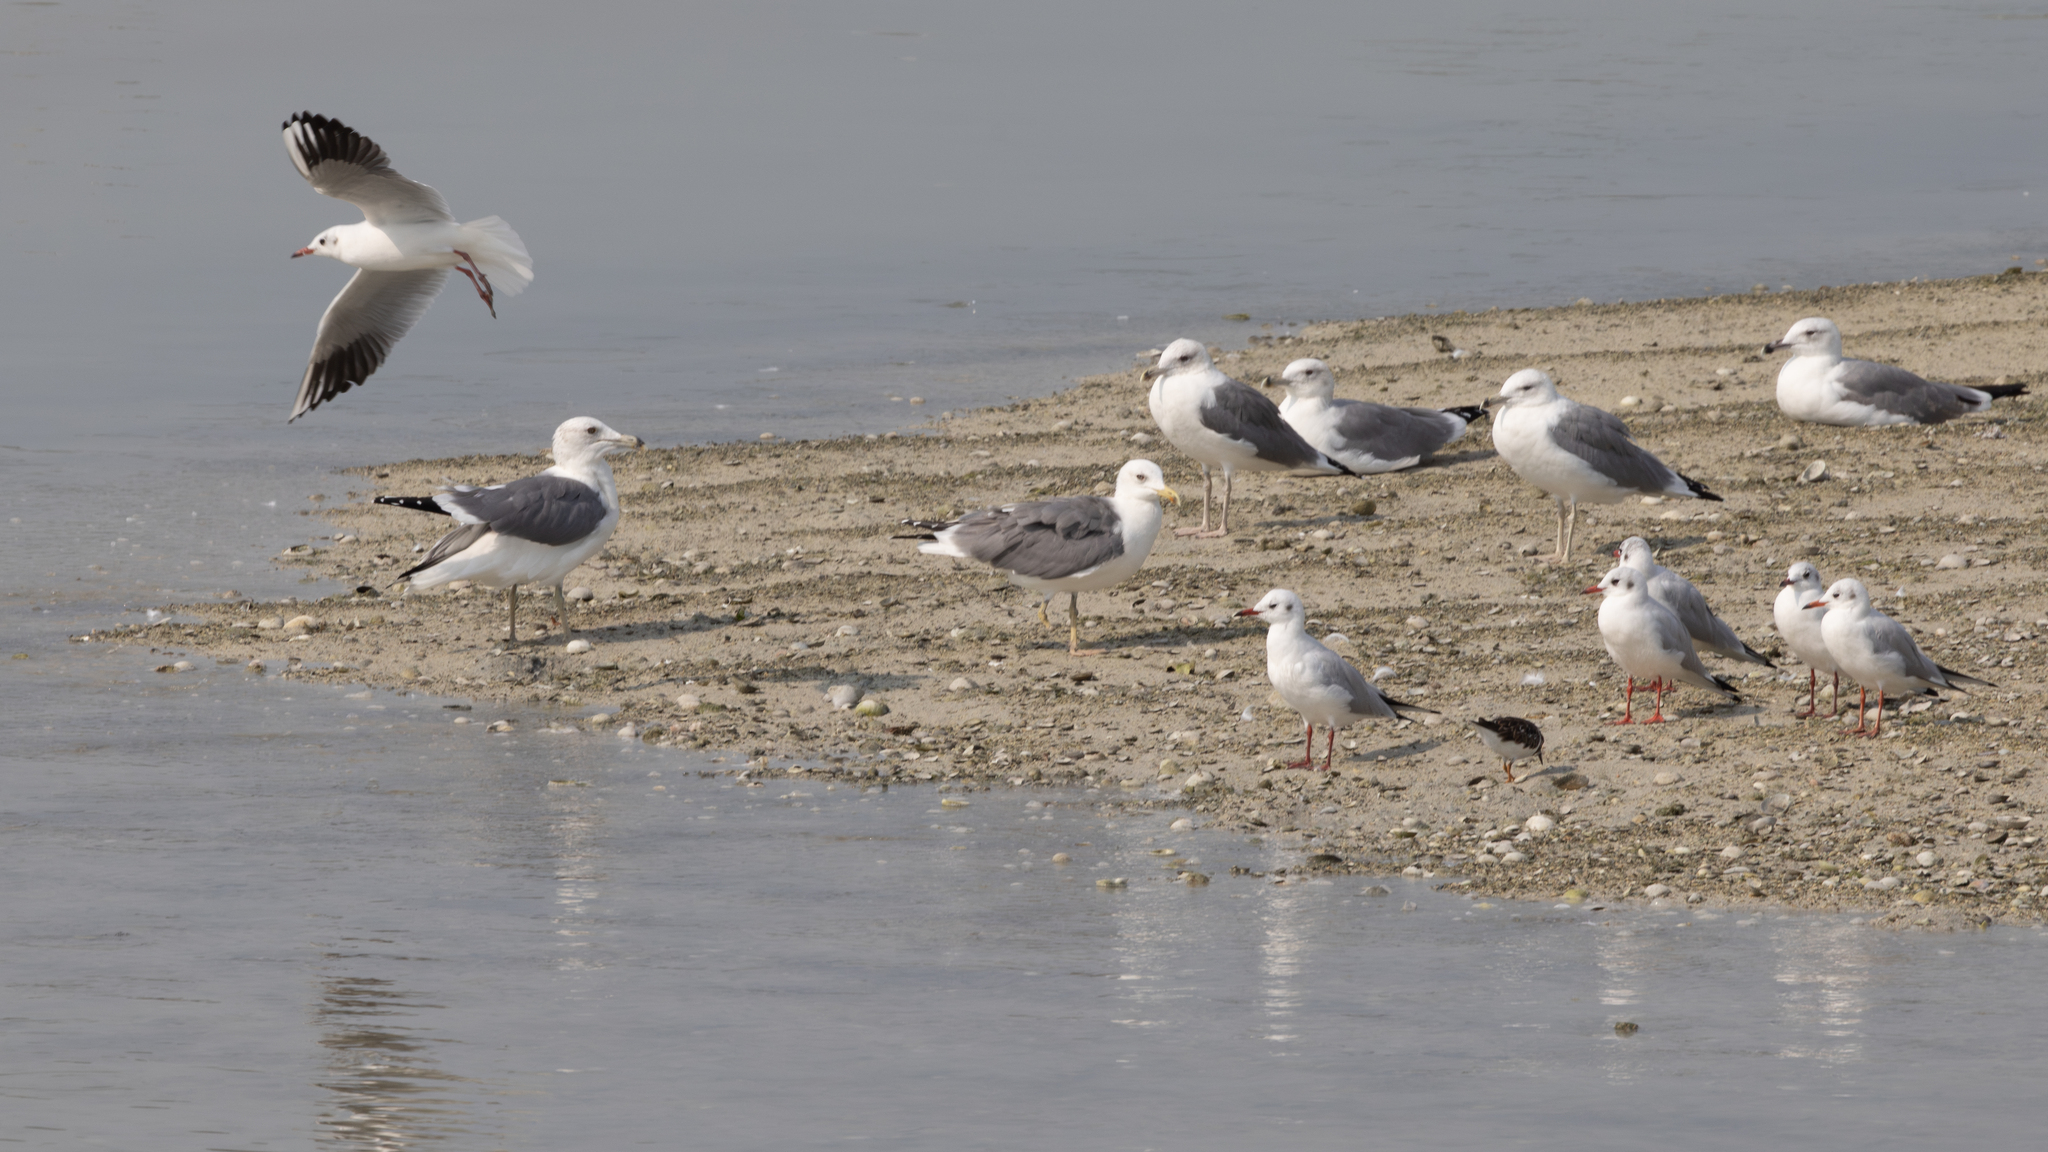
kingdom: Animalia
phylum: Chordata
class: Aves
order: Charadriiformes
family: Laridae
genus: Larus
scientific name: Larus fuscus
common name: Lesser black-backed gull
